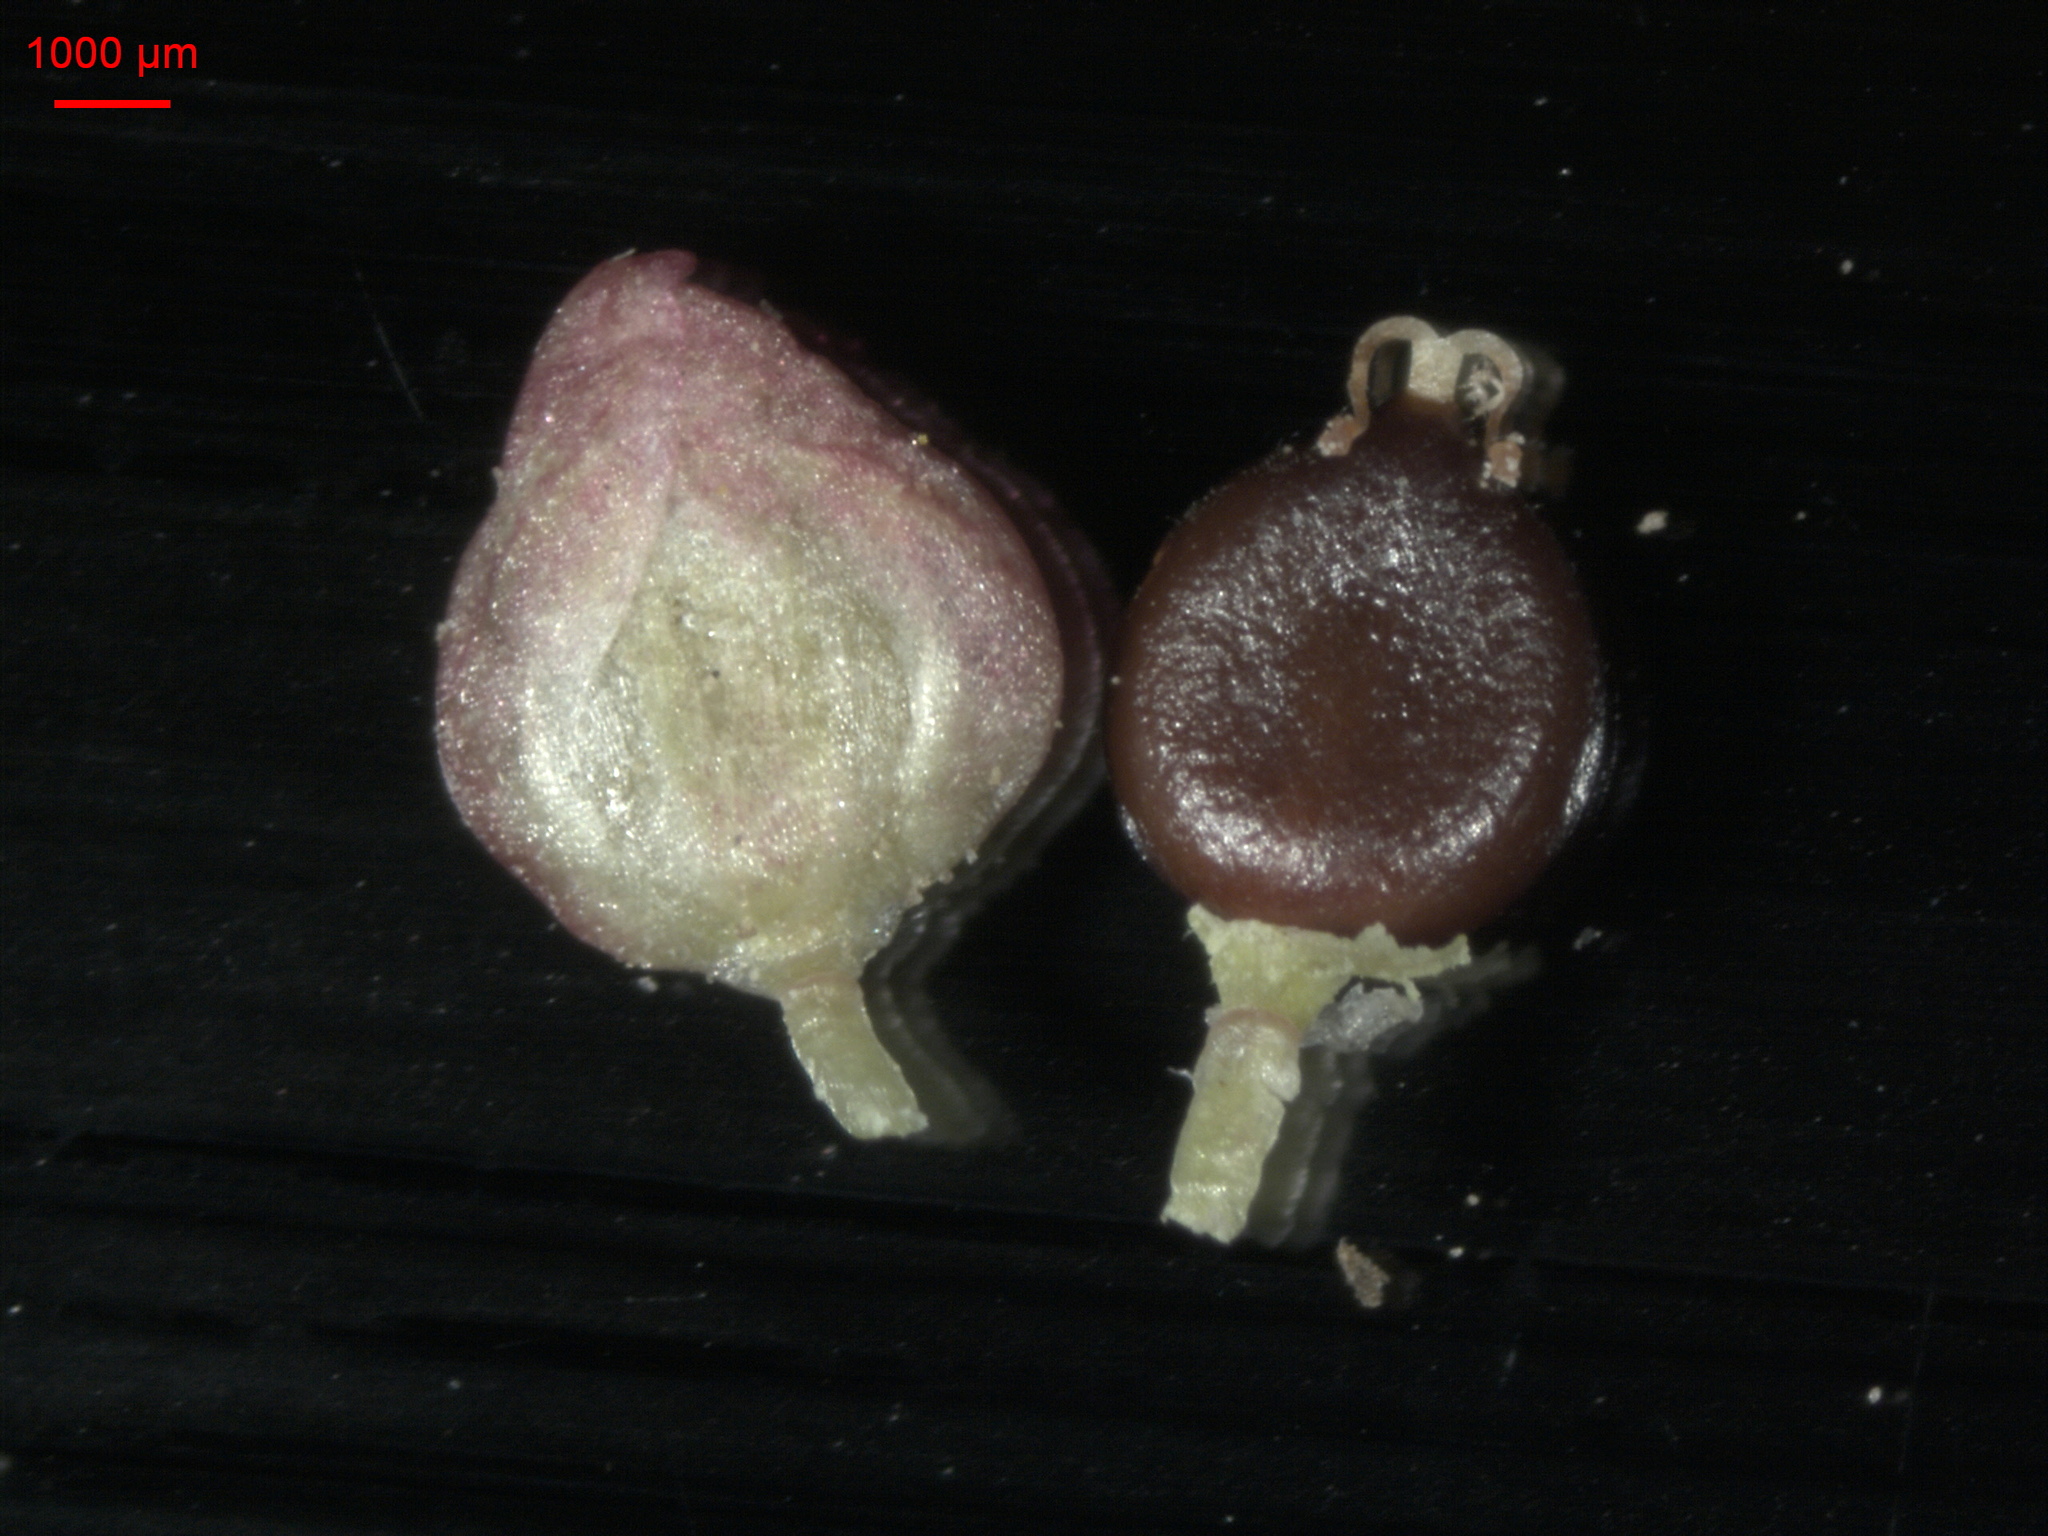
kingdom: Plantae
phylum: Tracheophyta
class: Magnoliopsida
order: Caryophyllales
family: Polygonaceae
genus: Persicaria
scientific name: Persicaria lapathifolia
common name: Curlytop knotweed
